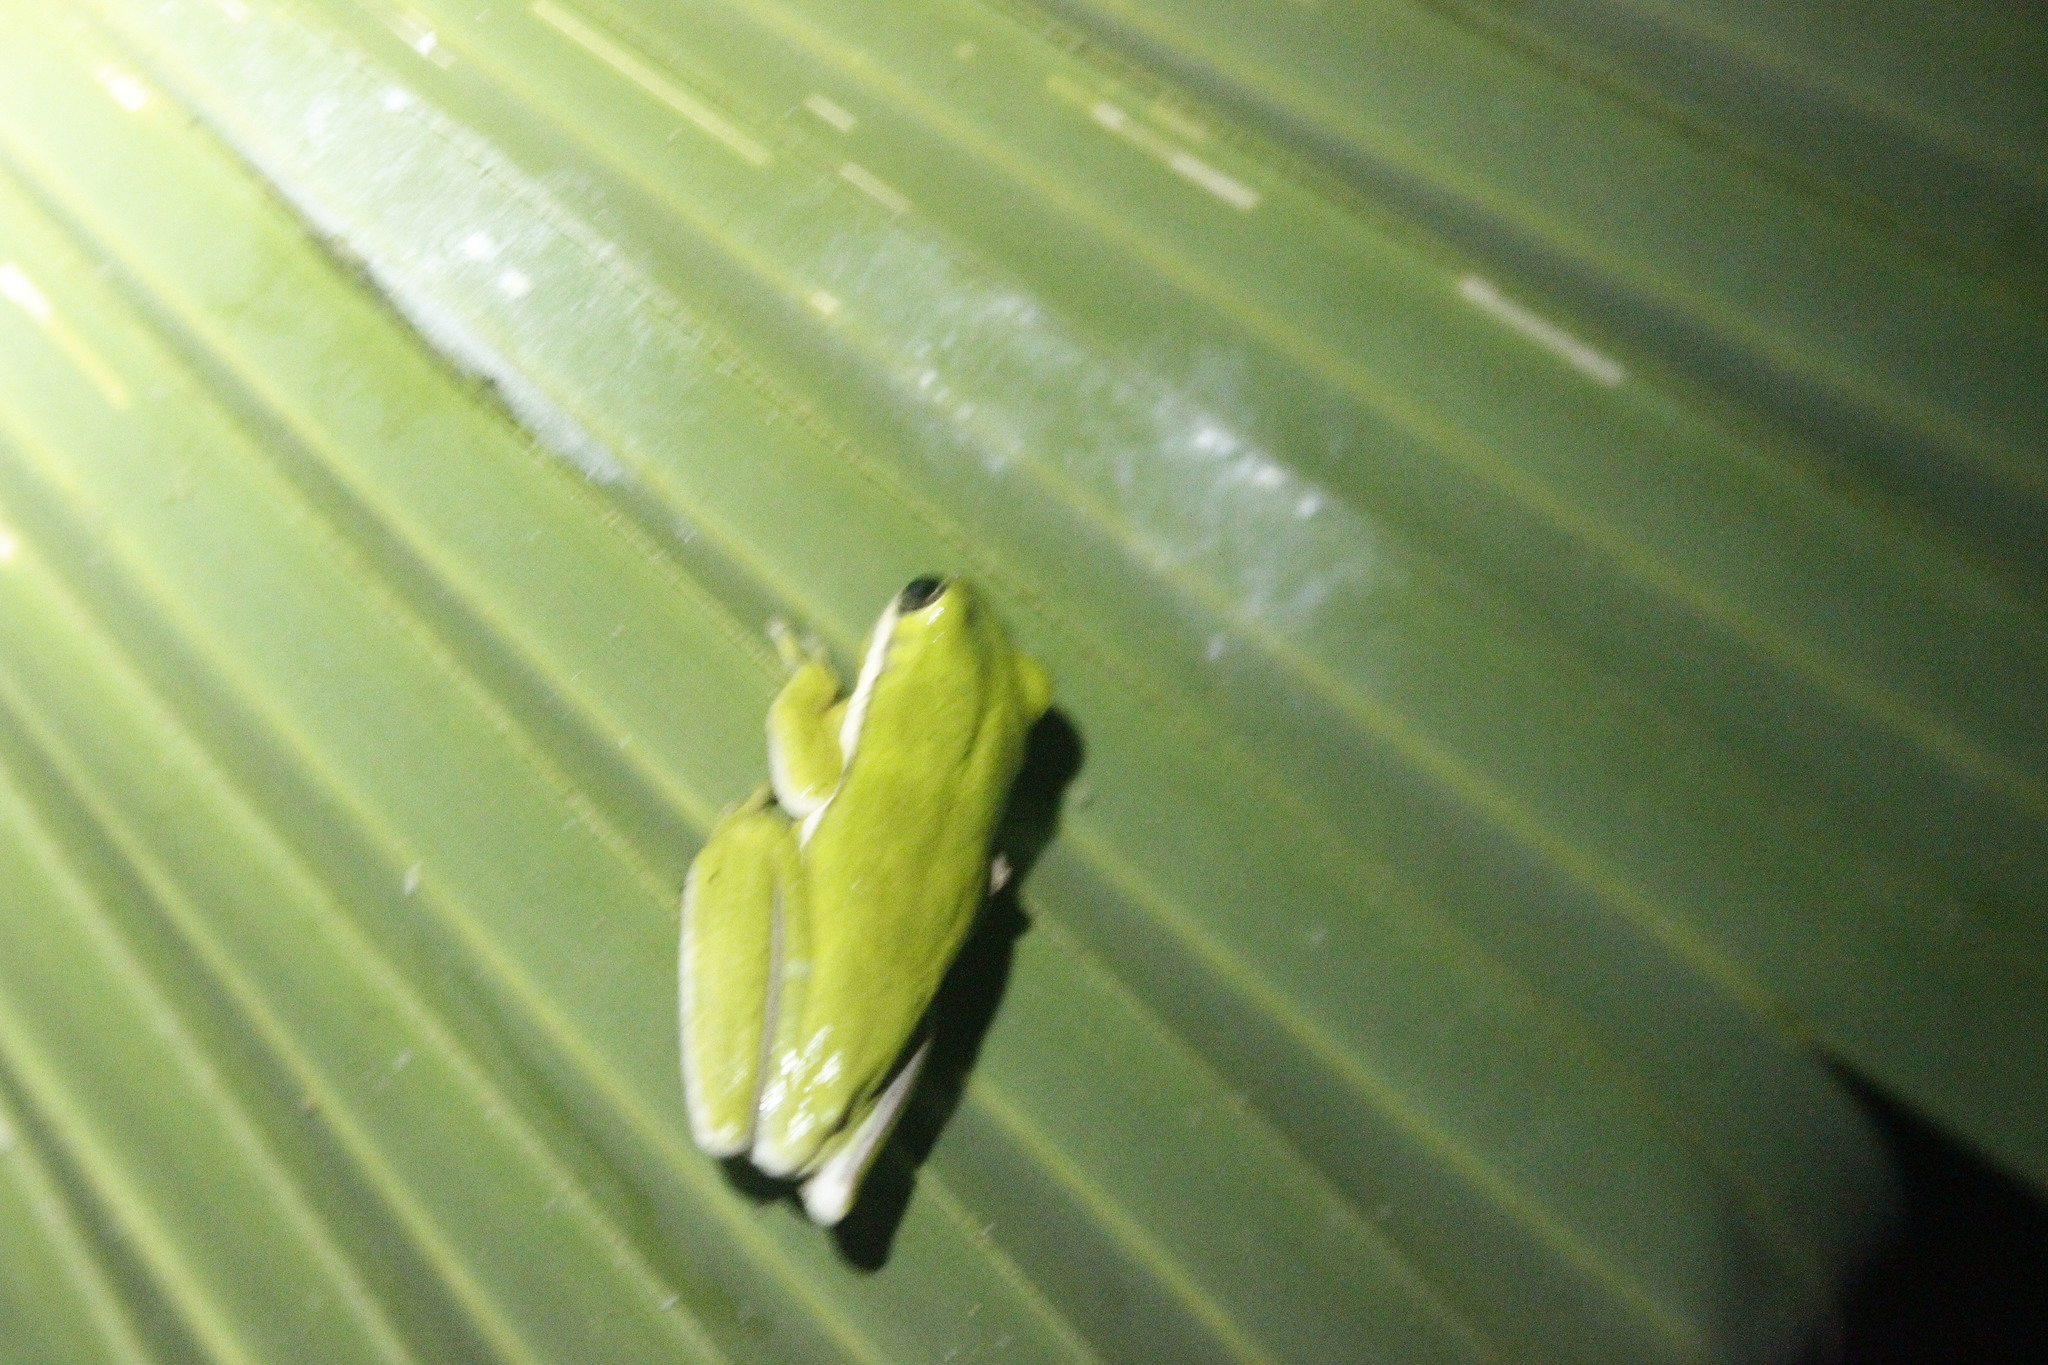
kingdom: Animalia
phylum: Chordata
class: Amphibia
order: Anura
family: Hylidae
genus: Dryophytes
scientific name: Dryophytes cinereus
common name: Green treefrog
